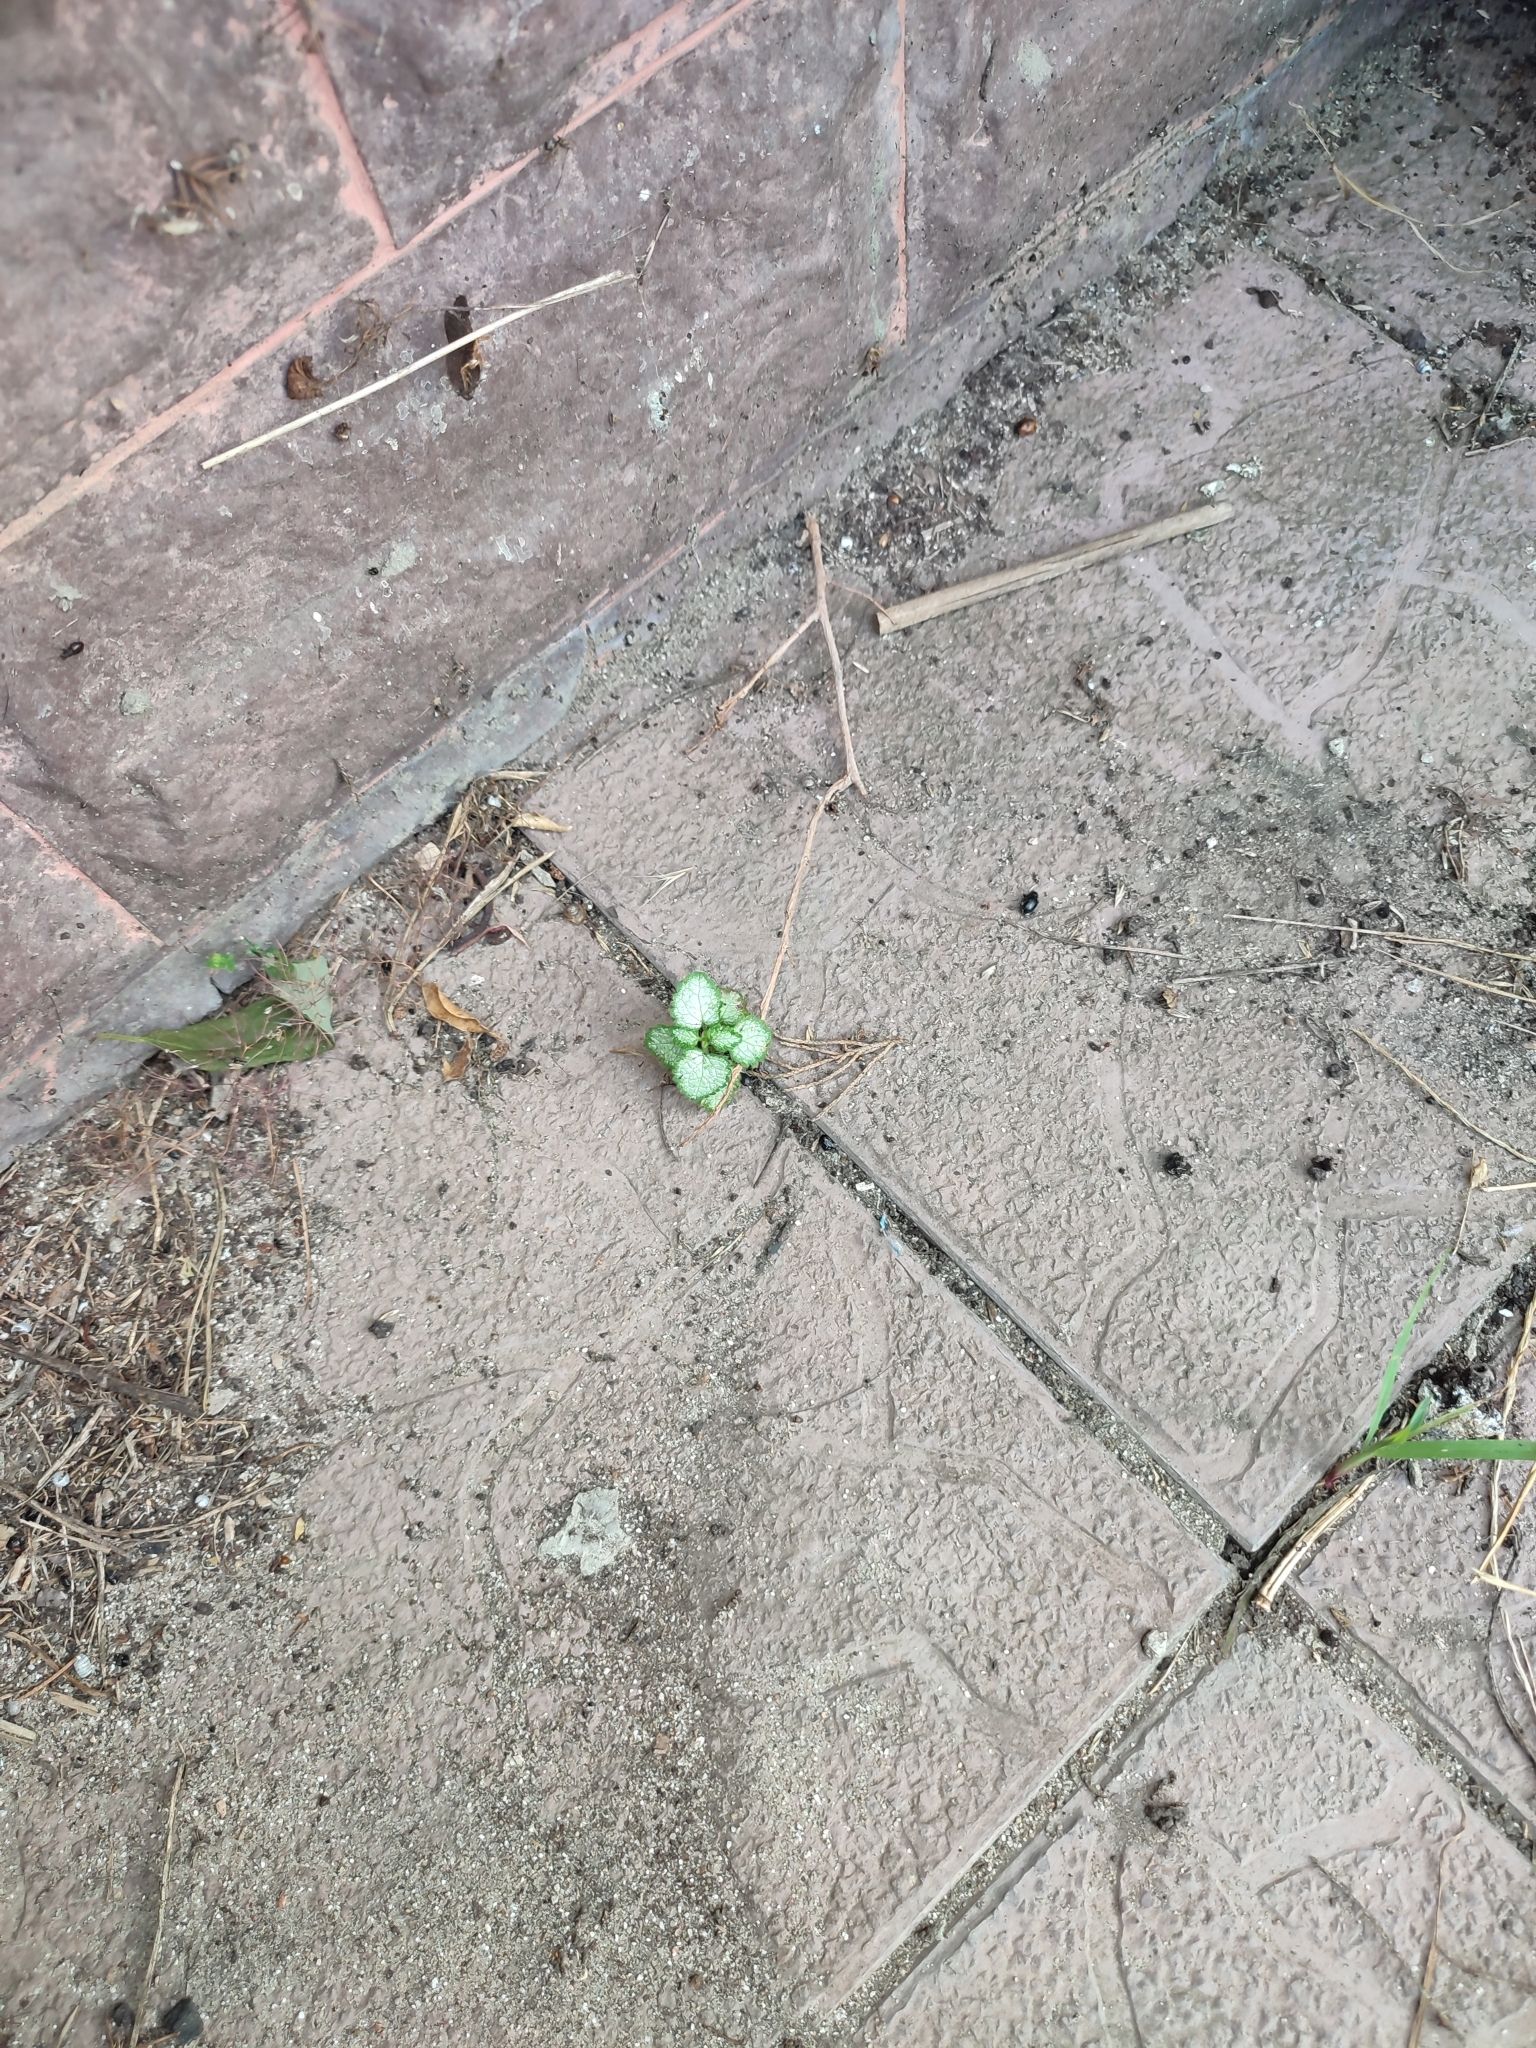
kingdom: Plantae
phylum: Tracheophyta
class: Magnoliopsida
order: Lamiales
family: Lamiaceae
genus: Lamium
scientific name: Lamium maculatum
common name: Spotted dead-nettle
